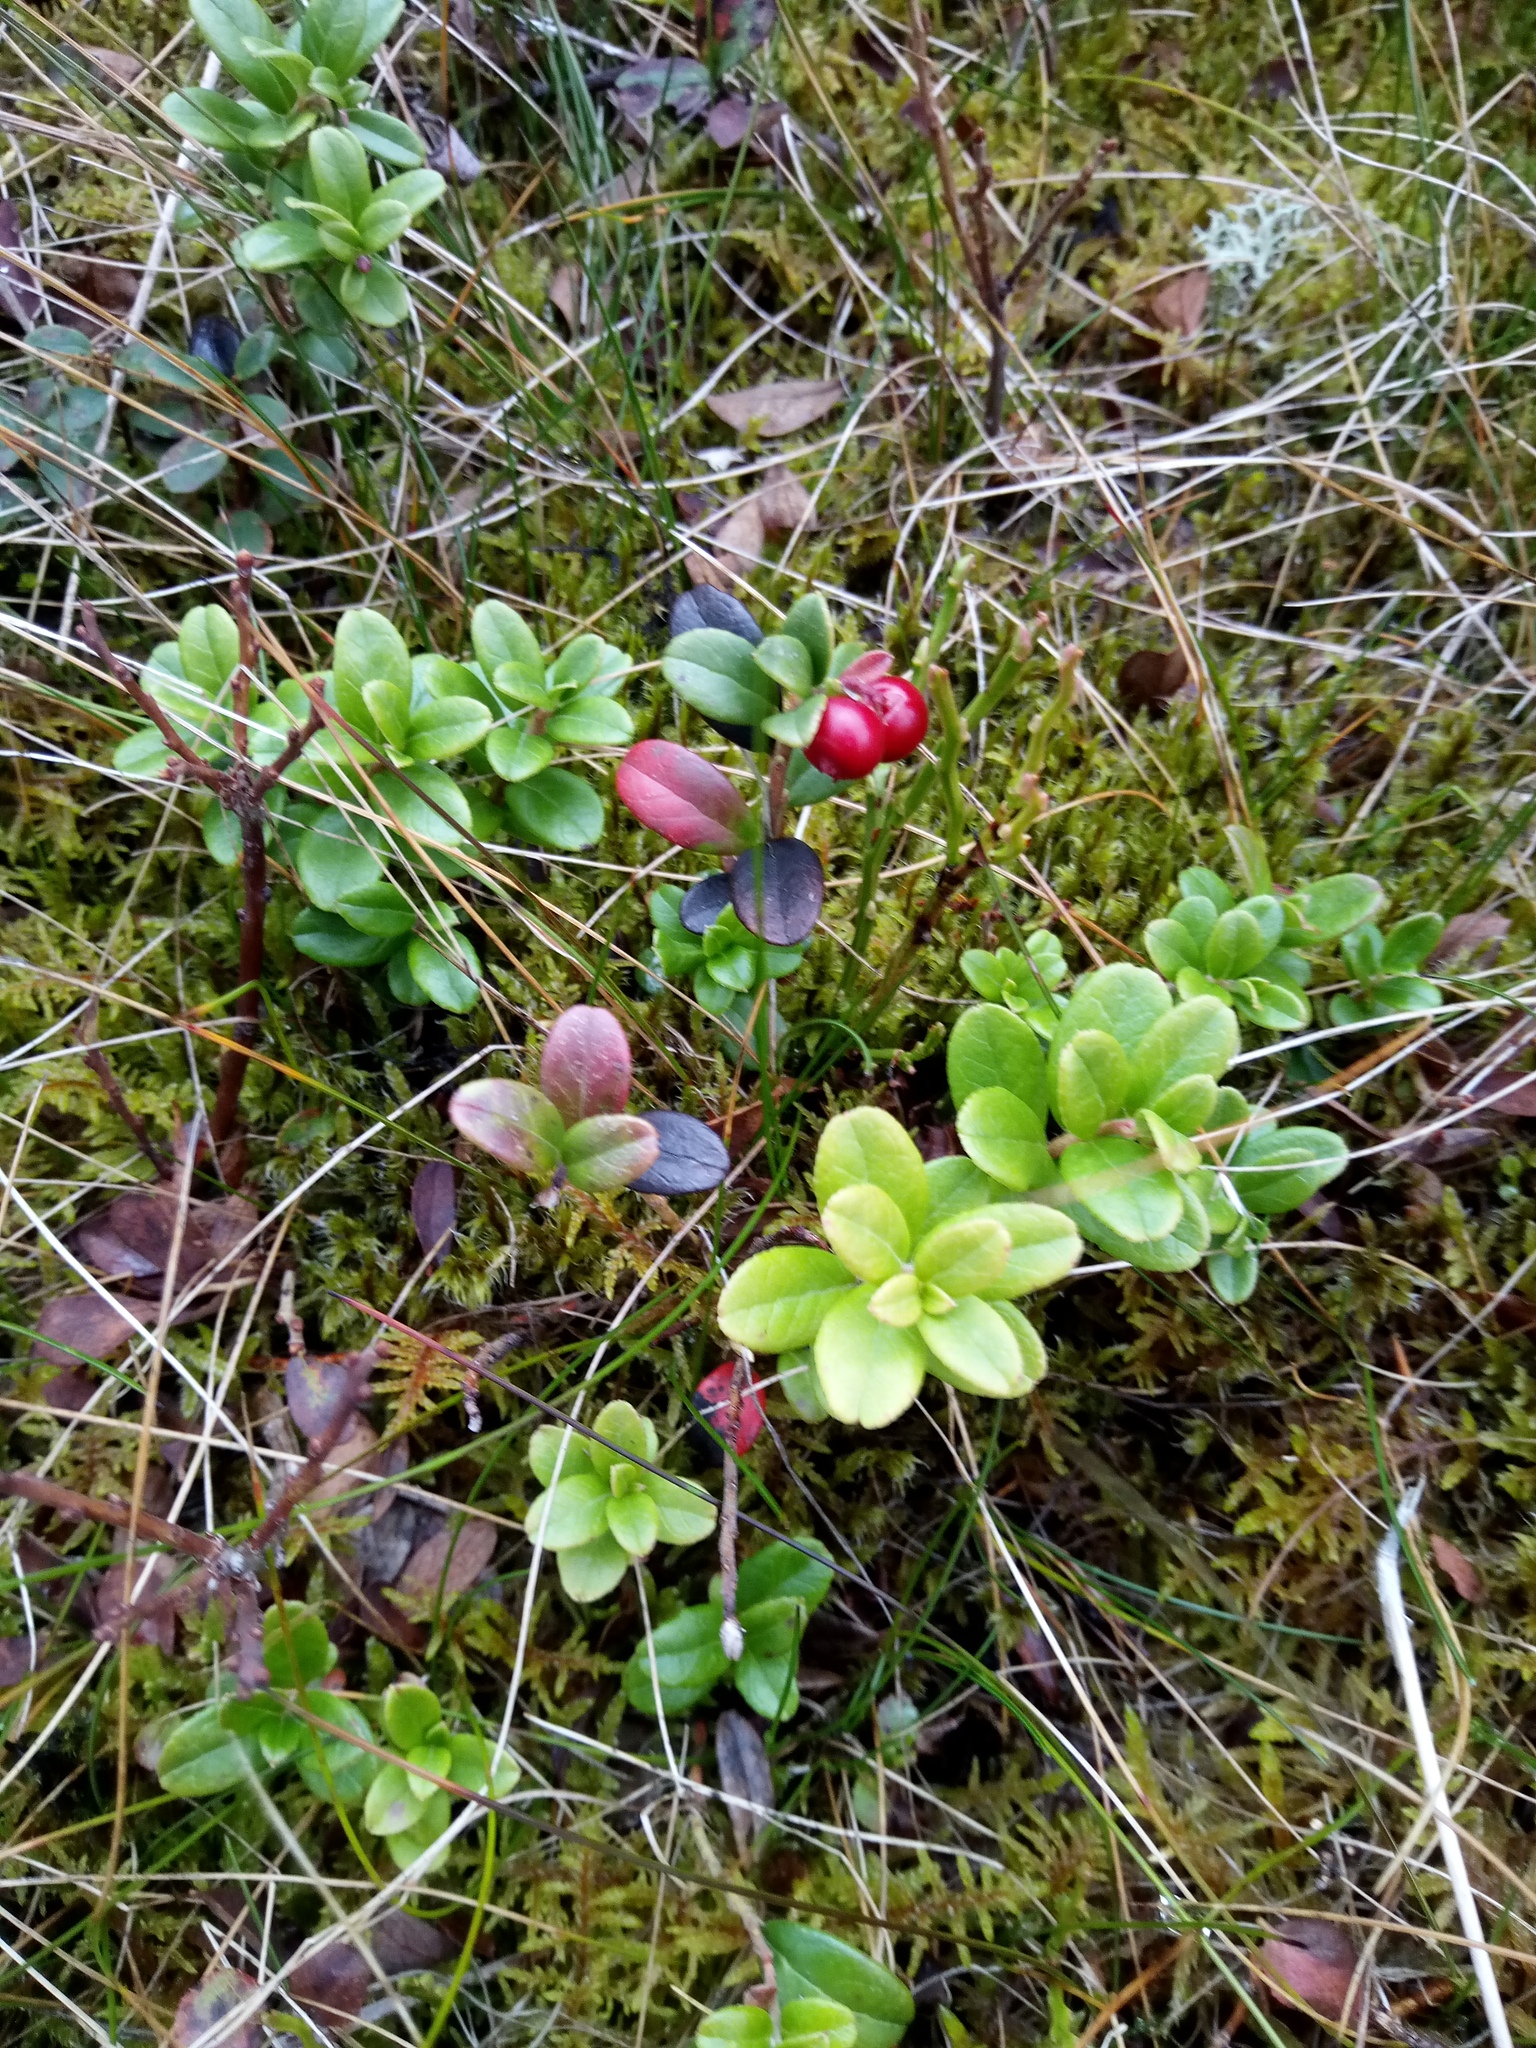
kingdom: Plantae
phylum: Tracheophyta
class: Magnoliopsida
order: Ericales
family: Ericaceae
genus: Vaccinium
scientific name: Vaccinium vitis-idaea
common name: Cowberry
